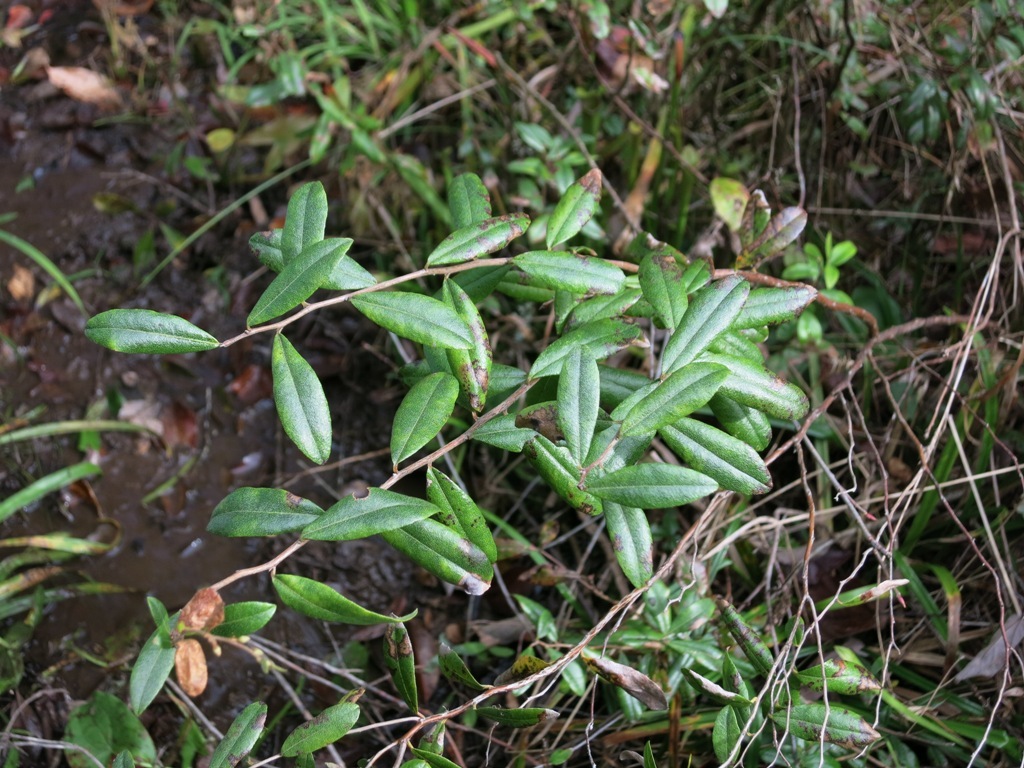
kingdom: Plantae
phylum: Tracheophyta
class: Magnoliopsida
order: Ericales
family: Ericaceae
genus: Chamaedaphne
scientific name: Chamaedaphne calyculata
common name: Leatherleaf
